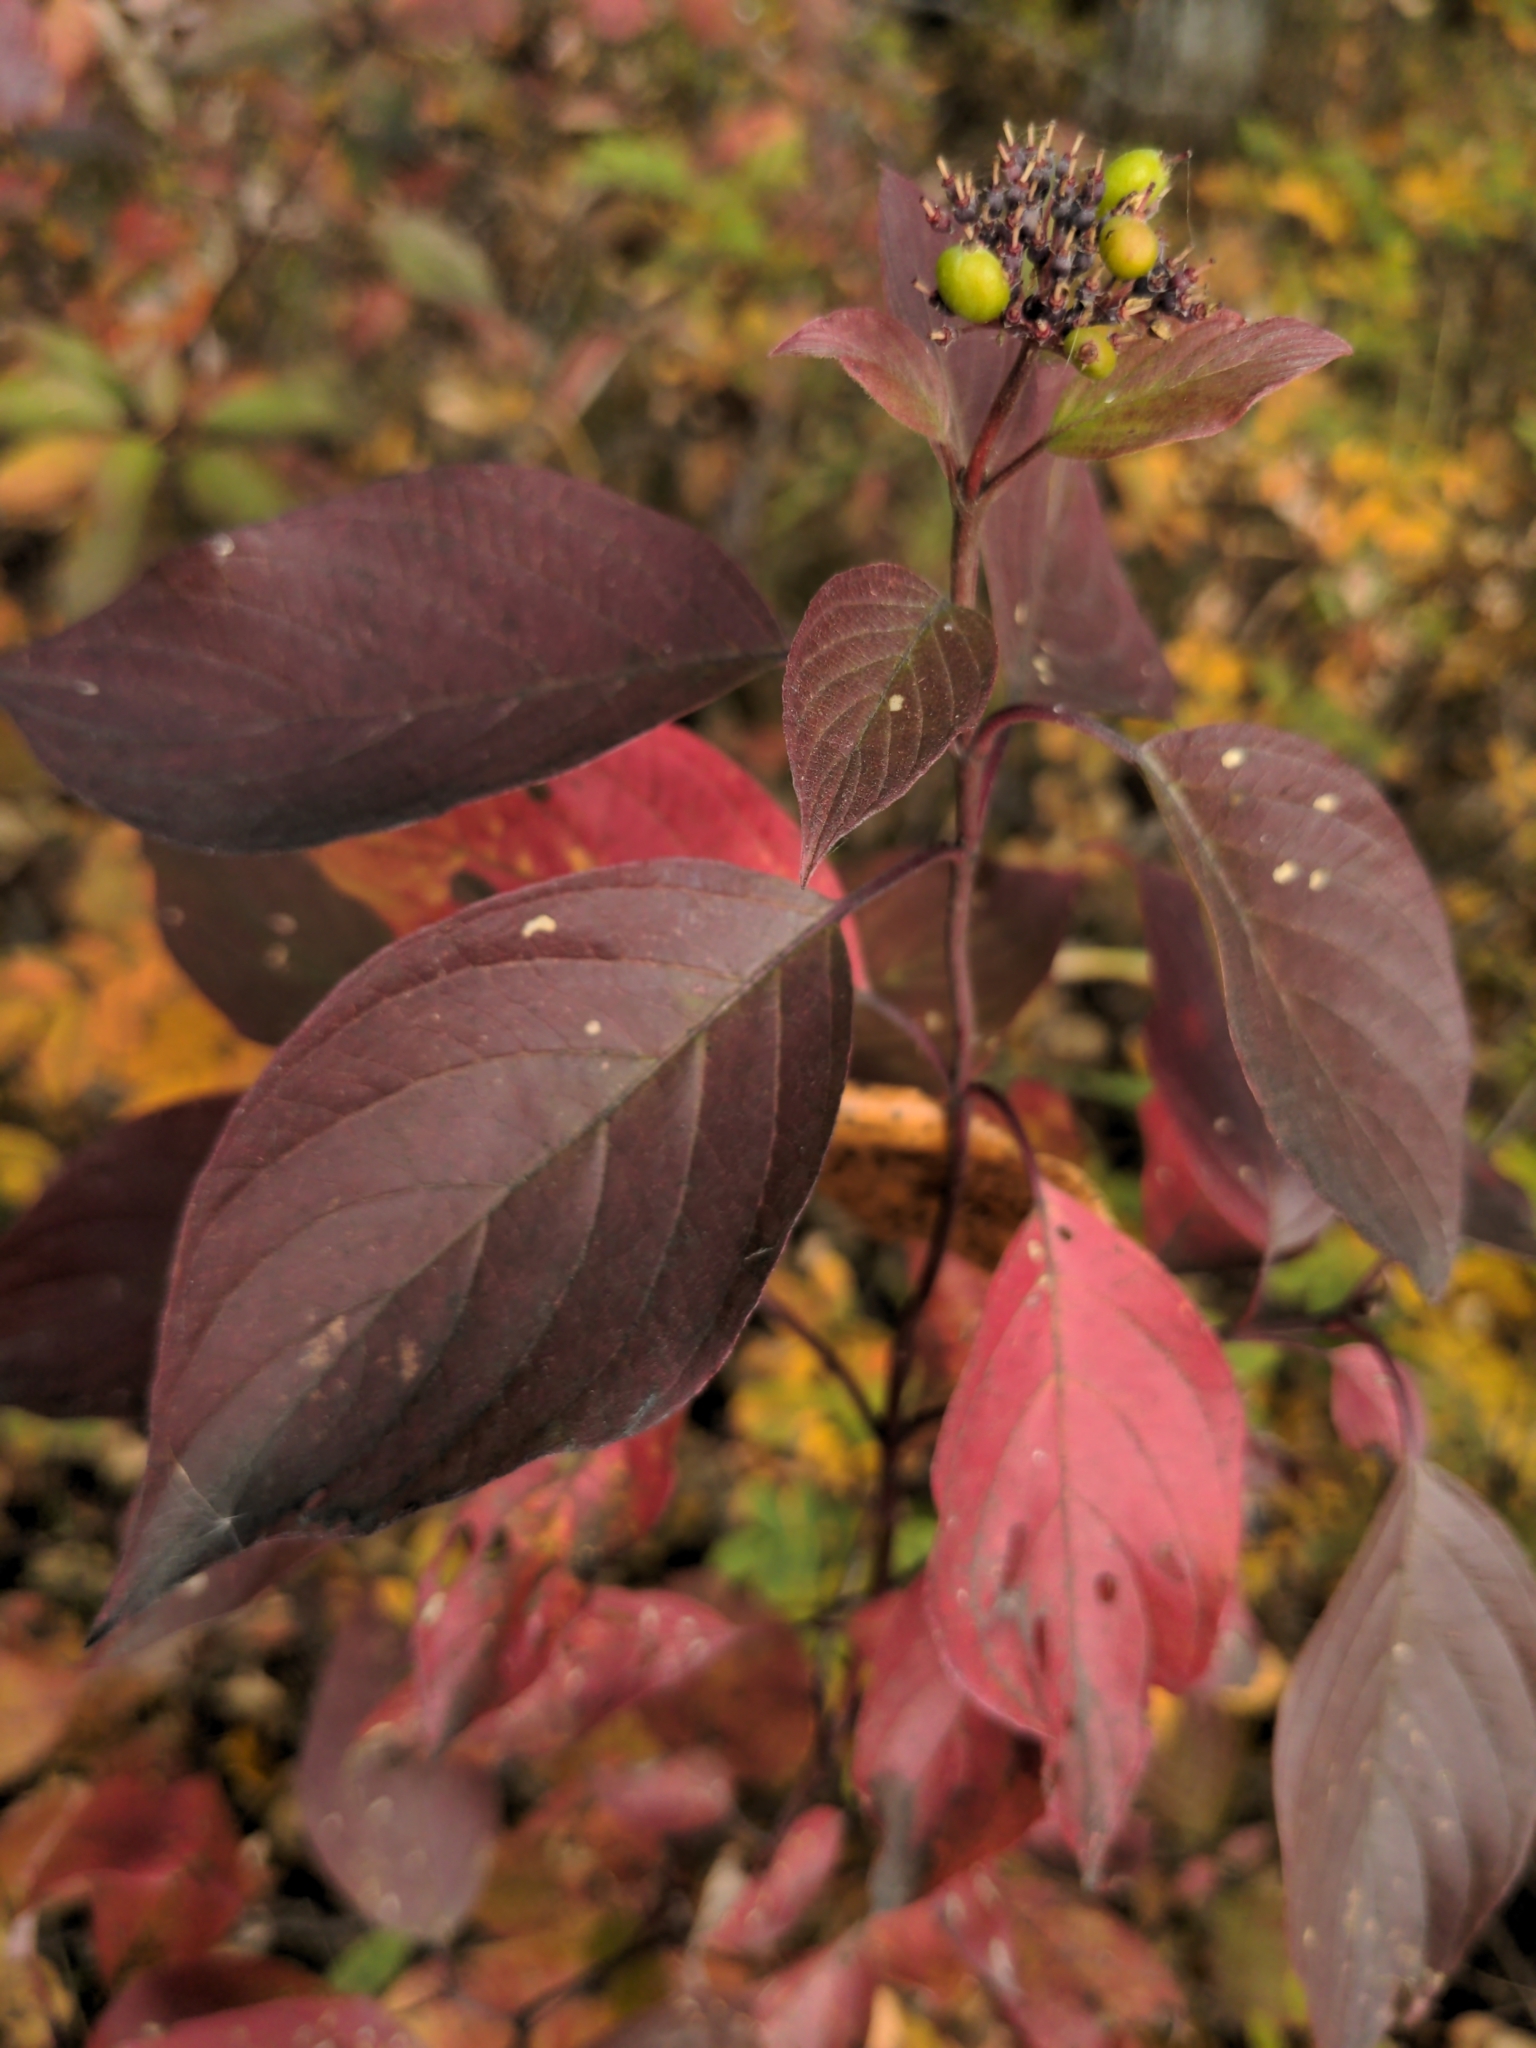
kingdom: Plantae
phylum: Tracheophyta
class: Magnoliopsida
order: Cornales
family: Cornaceae
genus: Cornus
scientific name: Cornus sericea
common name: Red-osier dogwood
